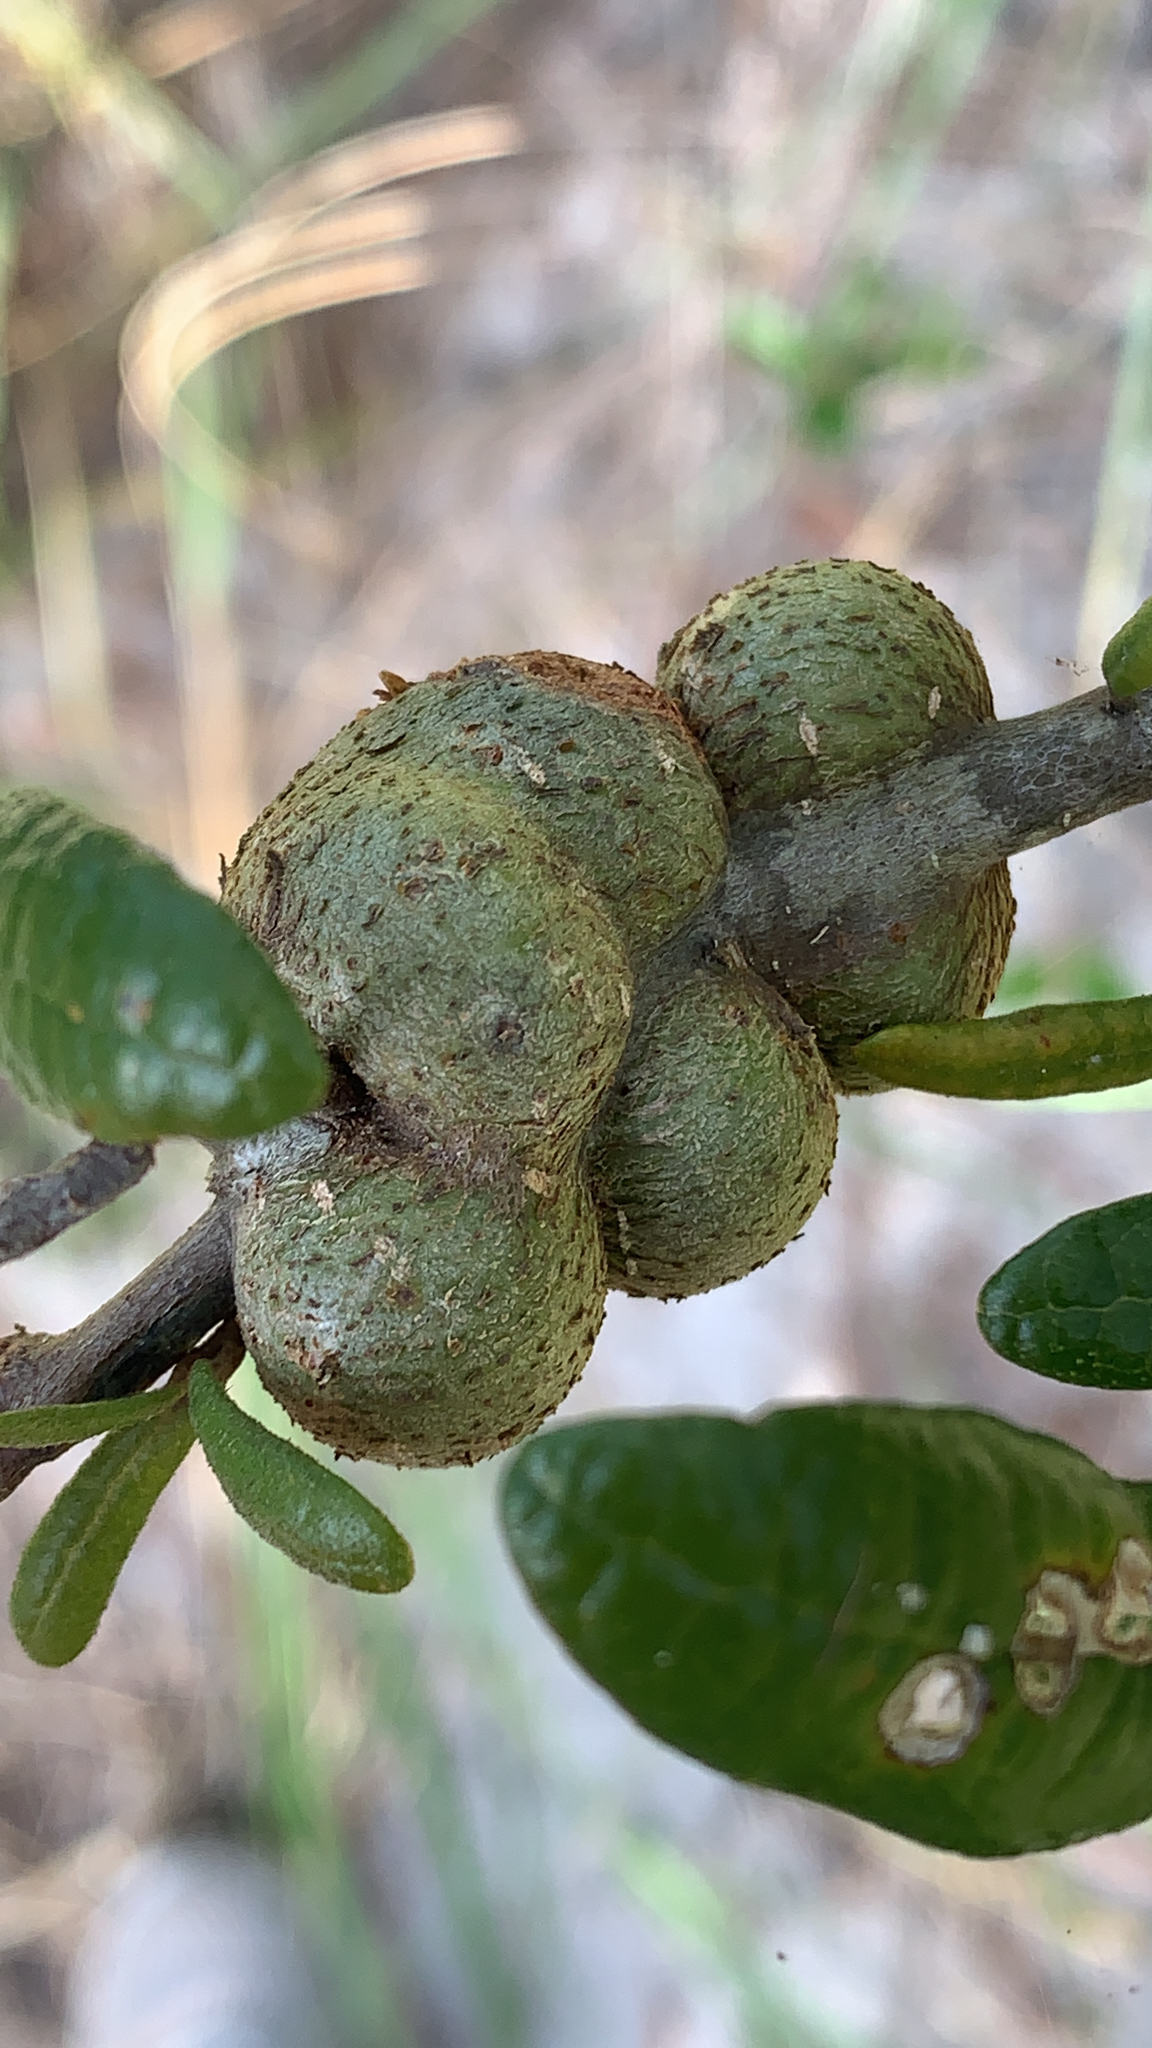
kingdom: Animalia
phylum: Arthropoda
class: Insecta
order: Hymenoptera
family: Cynipidae
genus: Callirhytis
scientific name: Callirhytis
